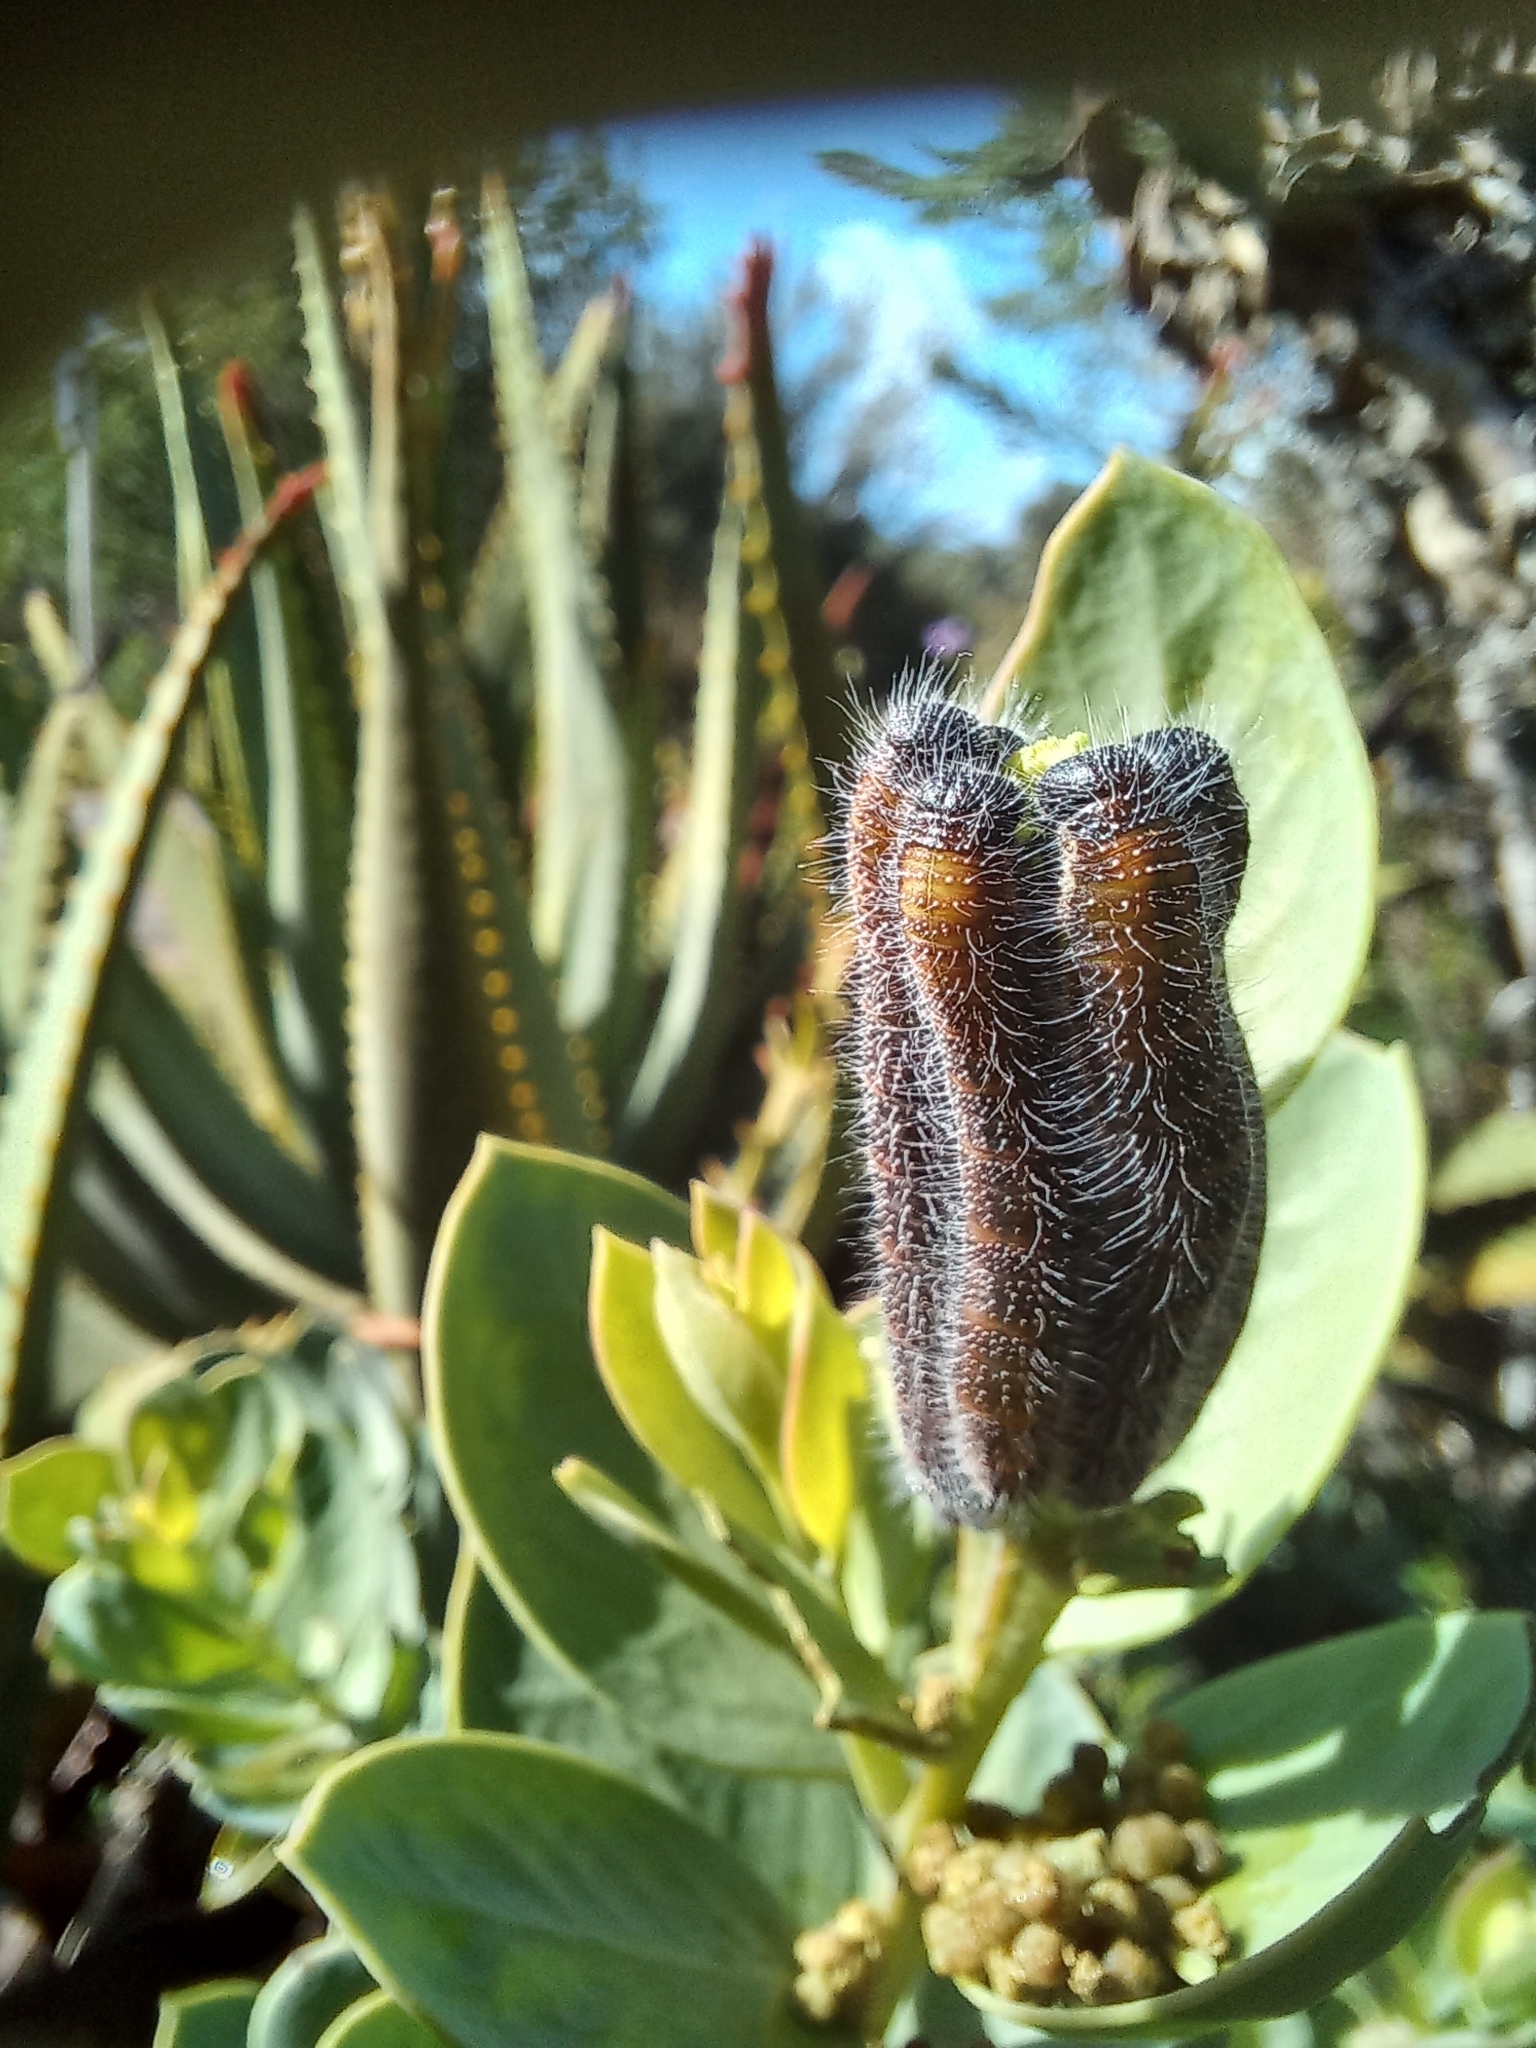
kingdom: Animalia
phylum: Arthropoda
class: Insecta
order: Lepidoptera
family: Pieridae
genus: Mylothris
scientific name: Mylothris agathina
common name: Eastern dotted border
